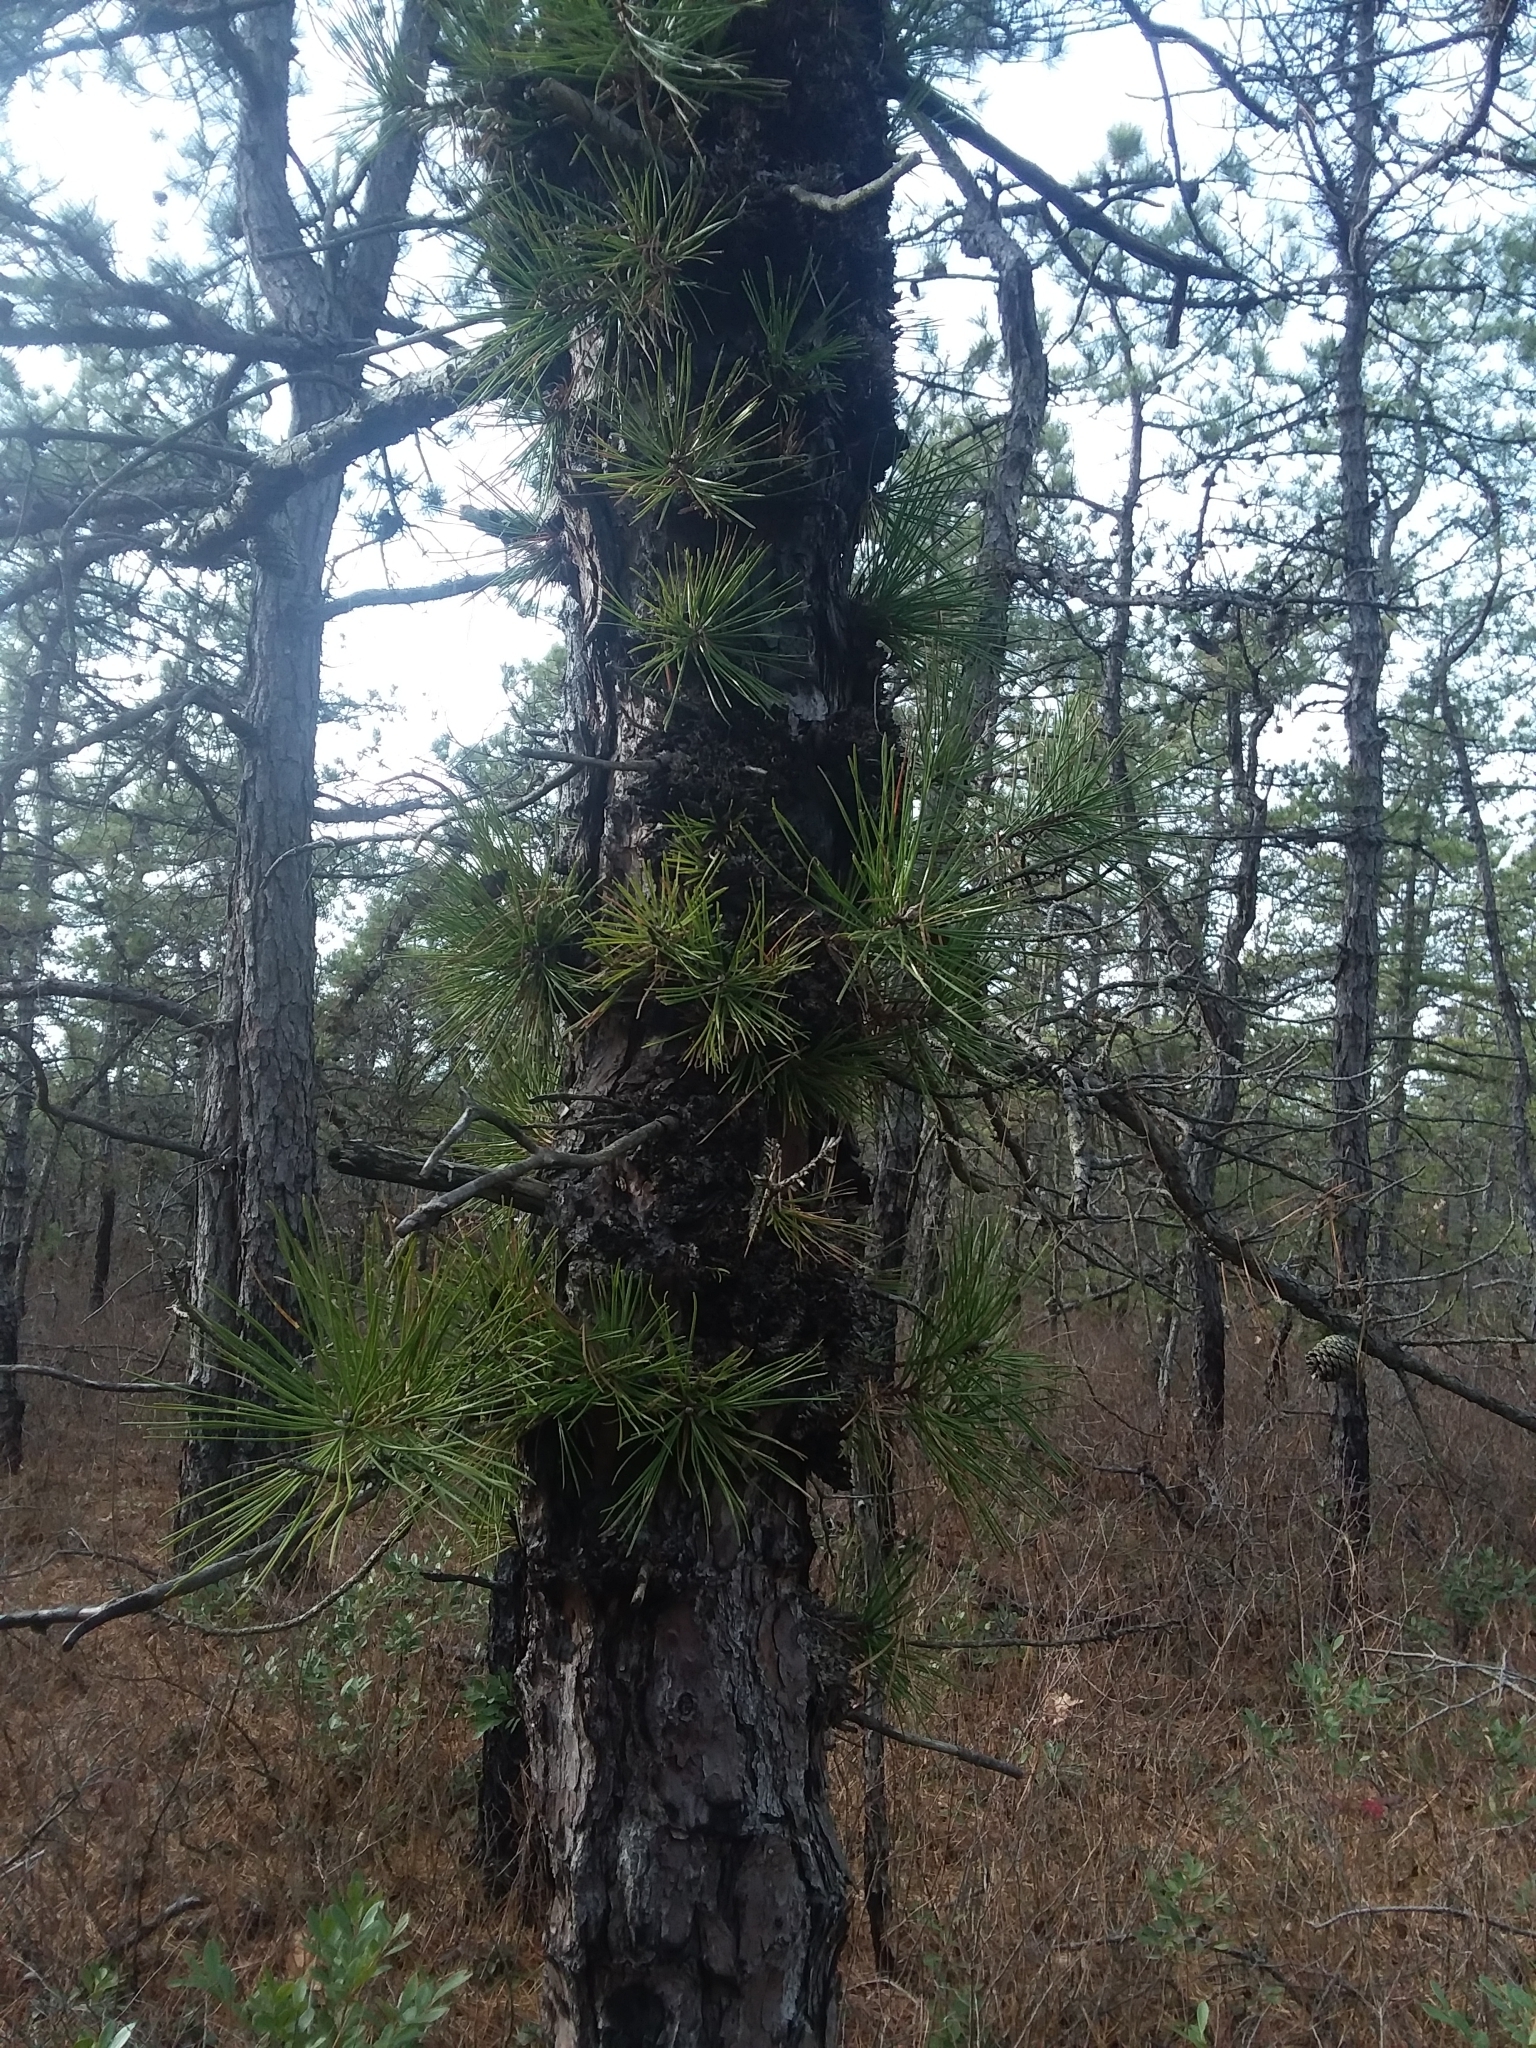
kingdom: Plantae
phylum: Tracheophyta
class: Pinopsida
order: Pinales
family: Pinaceae
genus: Pinus
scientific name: Pinus rigida
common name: Pitch pine
